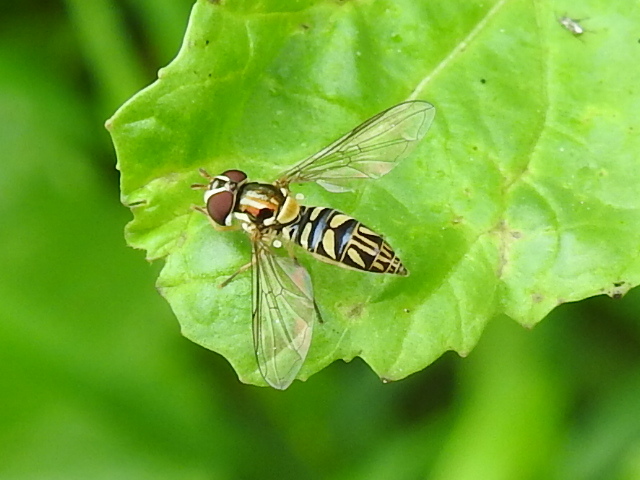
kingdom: Animalia
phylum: Arthropoda
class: Insecta
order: Diptera
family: Syrphidae
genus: Allograpta
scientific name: Allograpta obliqua
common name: Common oblique syrphid
